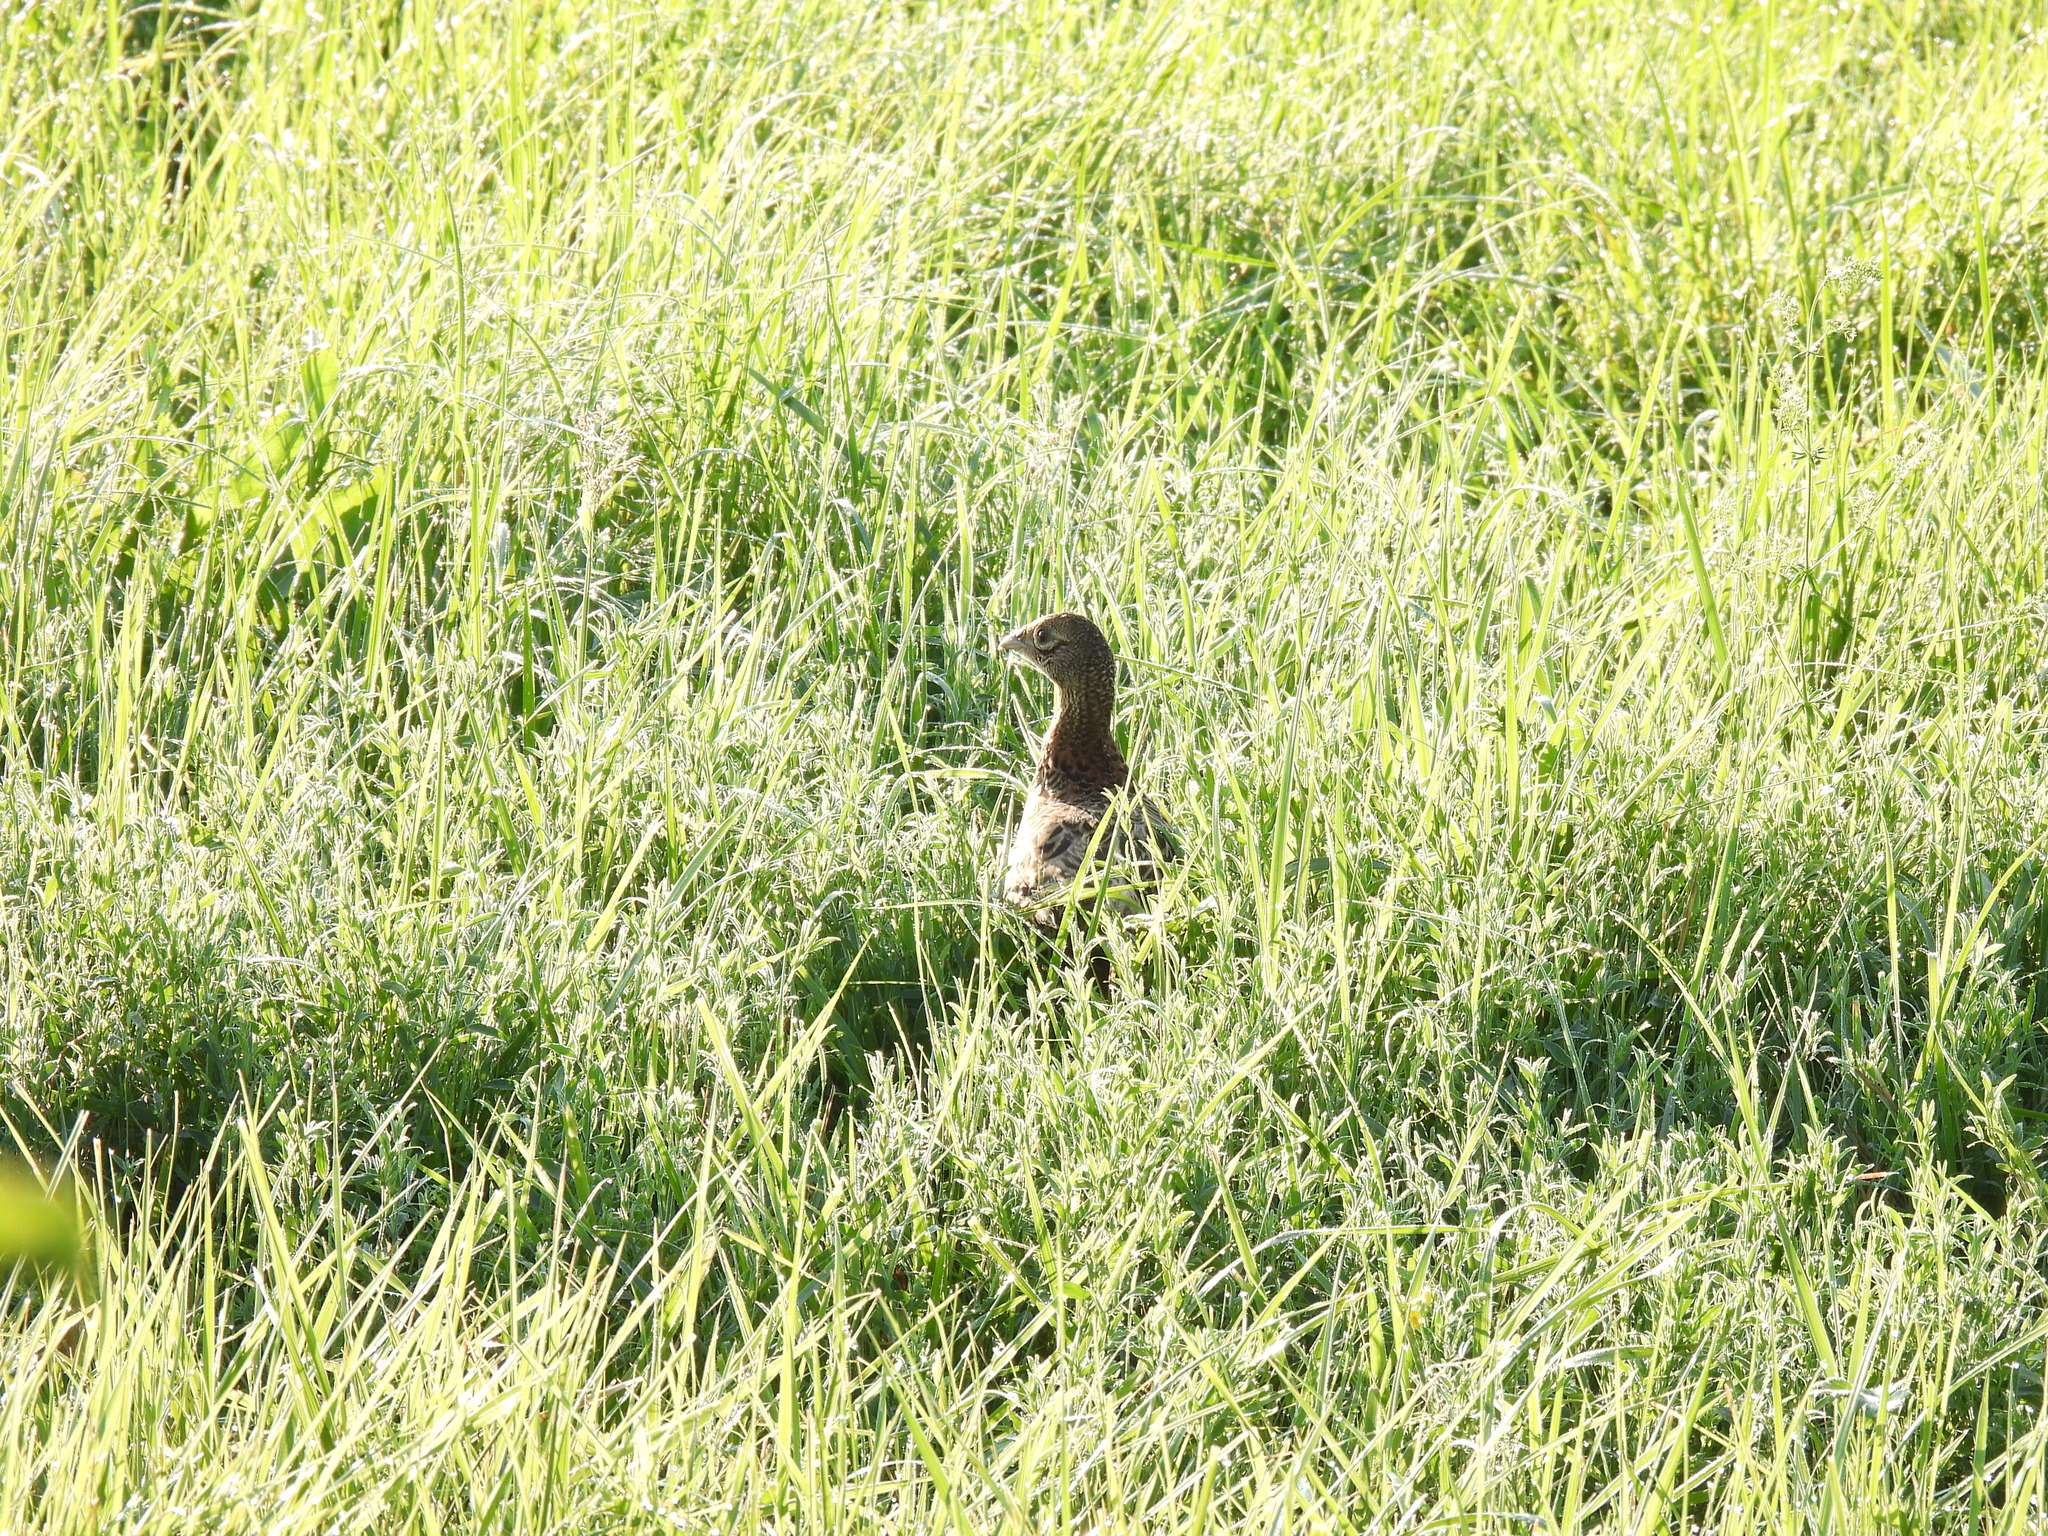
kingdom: Animalia
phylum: Chordata
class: Aves
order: Galliformes
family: Phasianidae
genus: Phasianus
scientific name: Phasianus colchicus
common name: Common pheasant
